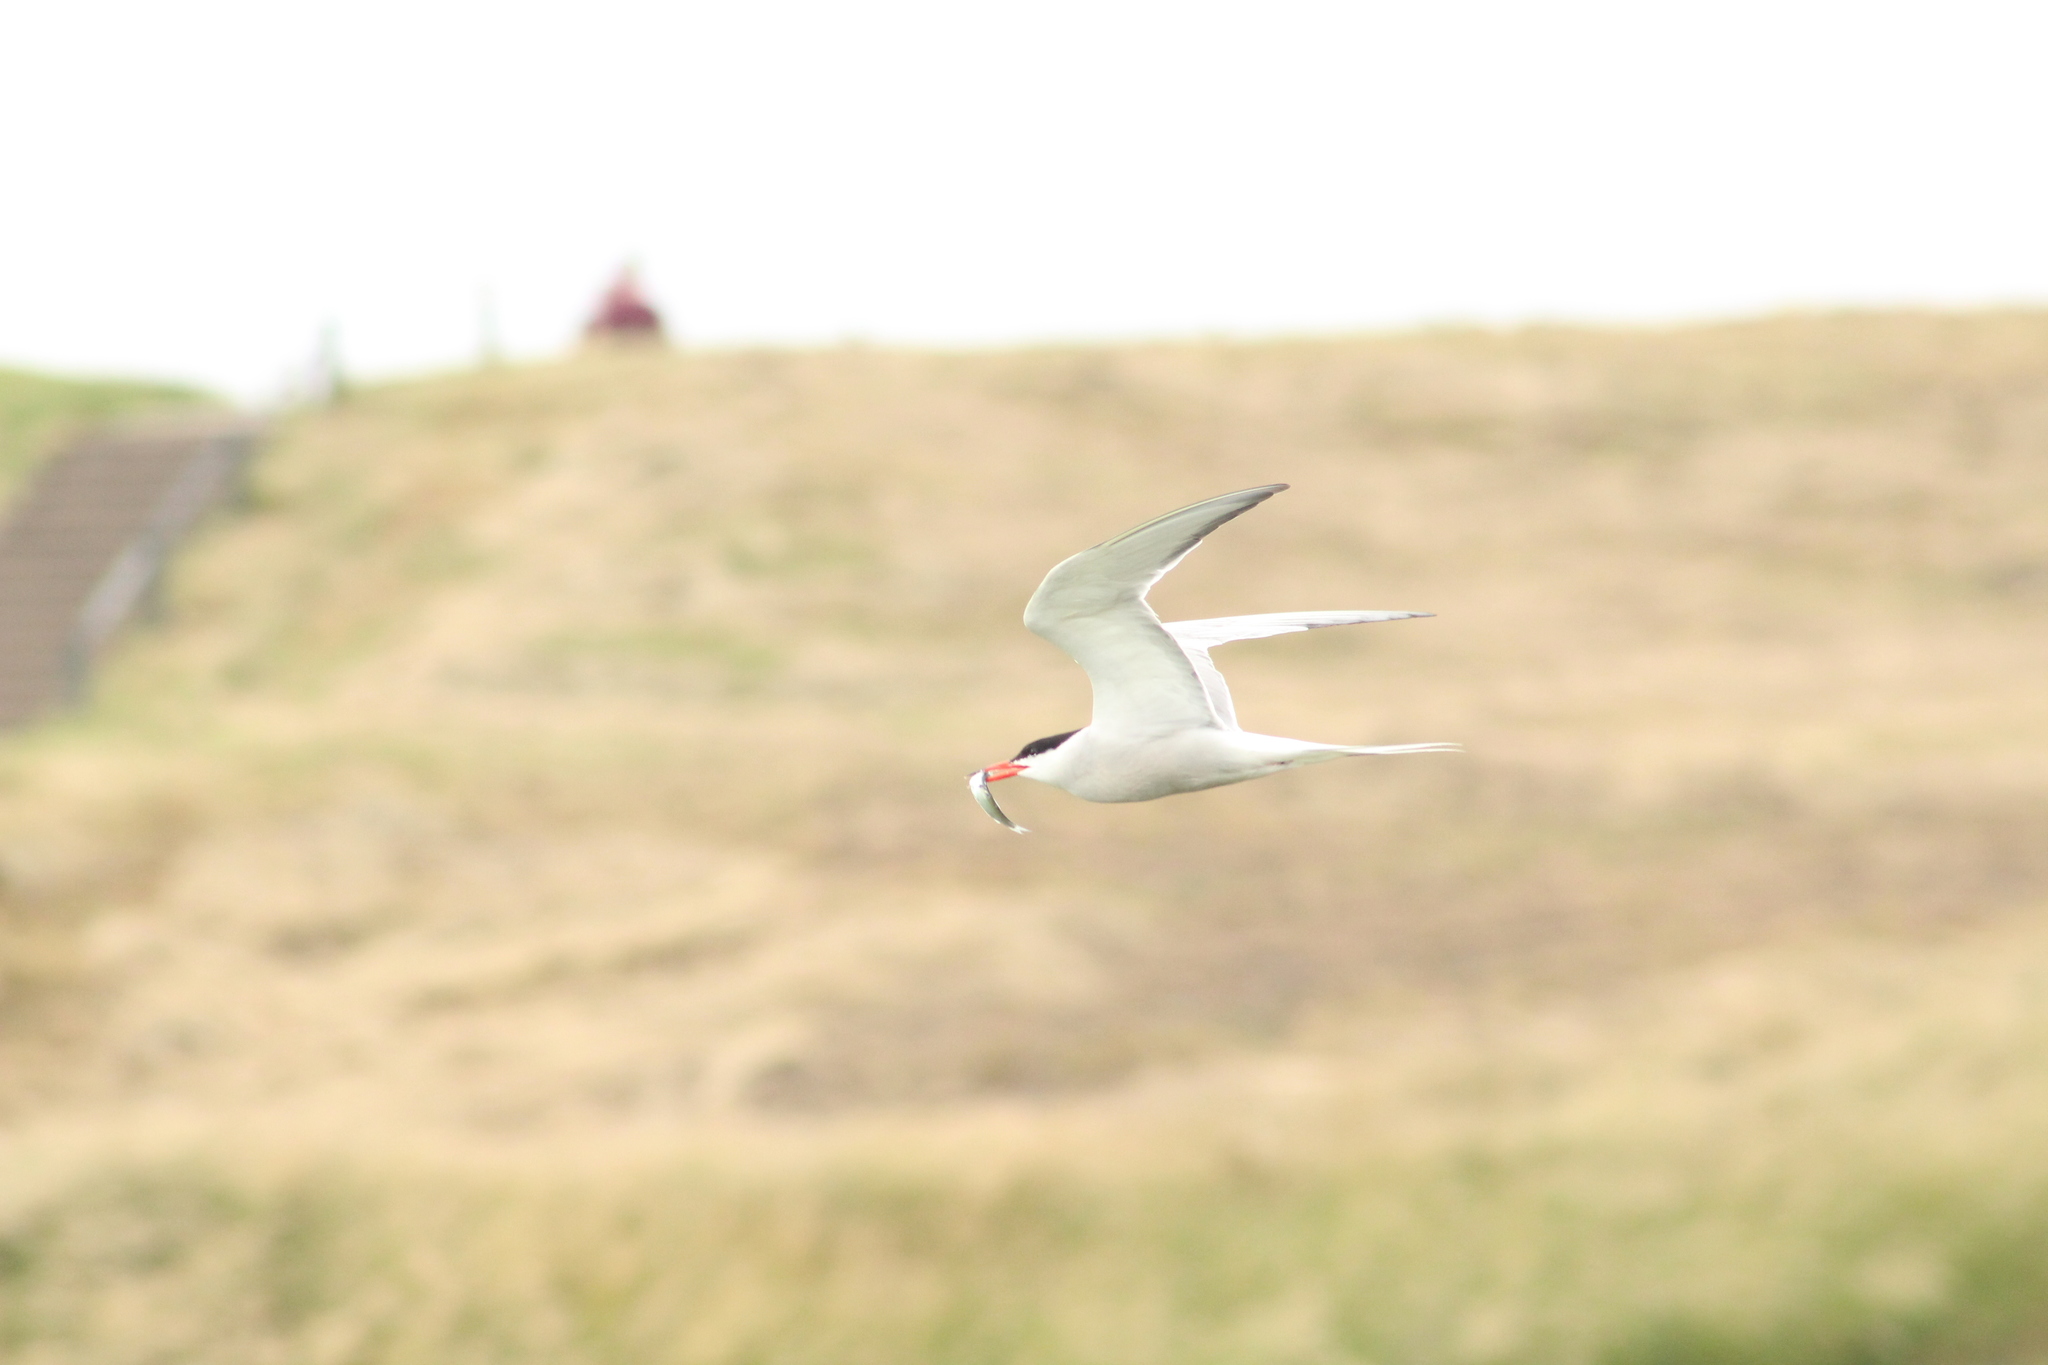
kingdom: Animalia
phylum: Chordata
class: Aves
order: Charadriiformes
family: Laridae
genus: Sterna
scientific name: Sterna hirundo
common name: Common tern
